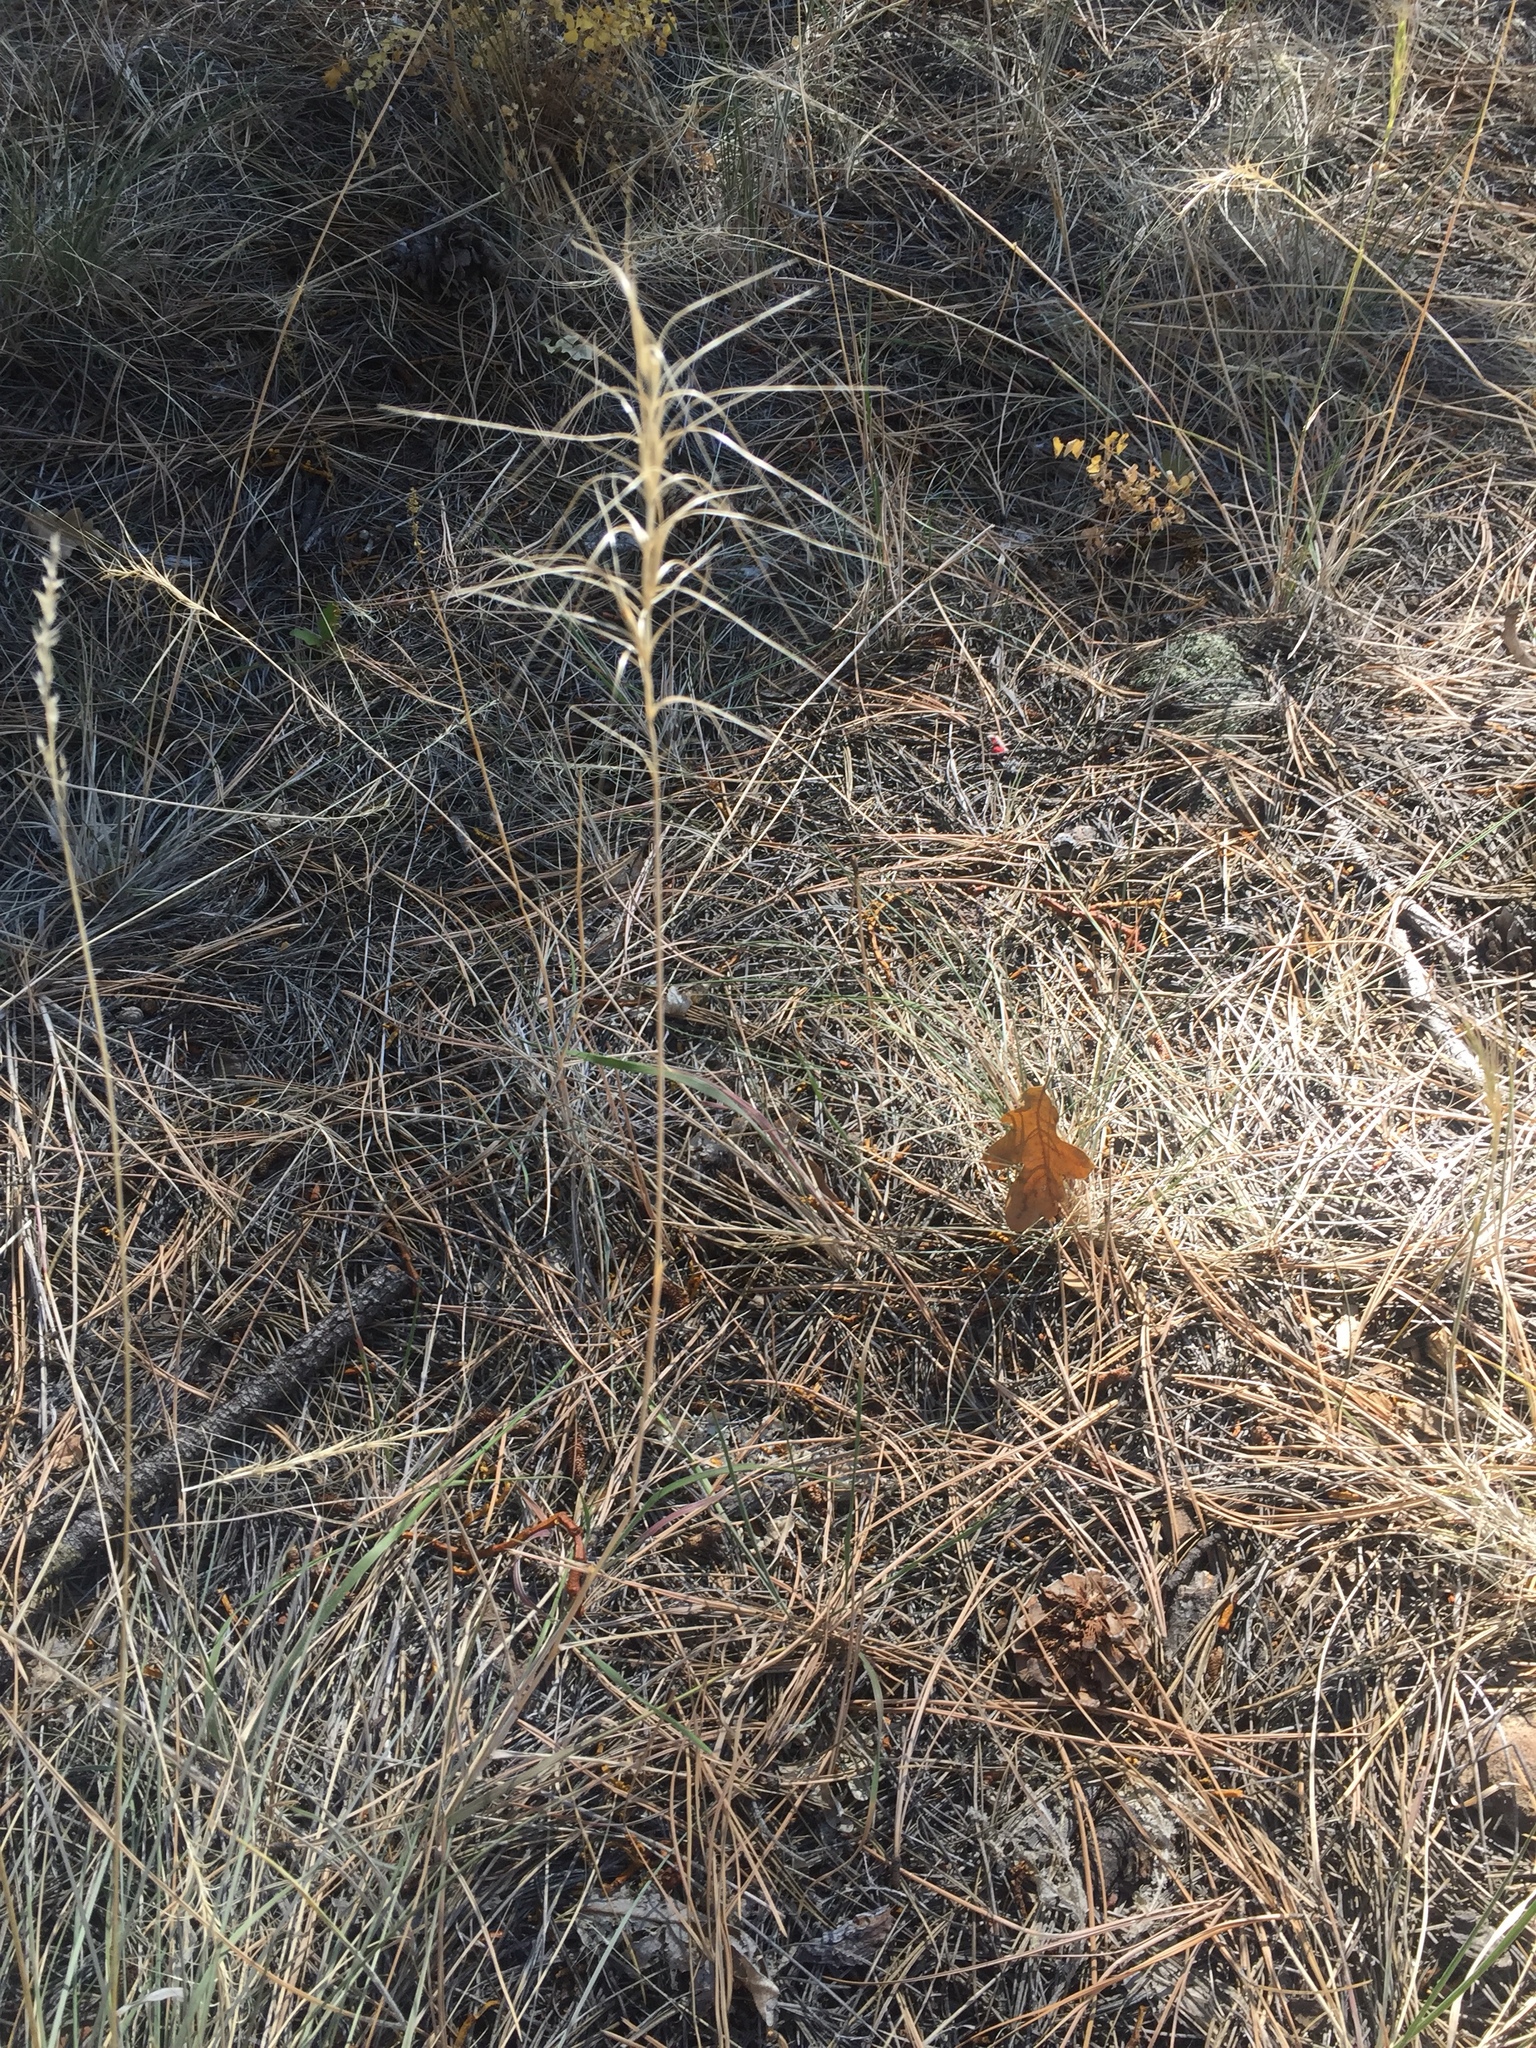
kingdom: Plantae
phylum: Tracheophyta
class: Liliopsida
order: Poales
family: Poaceae
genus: Elymus
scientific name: Elymus elymoides
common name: Bottlebrush squirreltail
